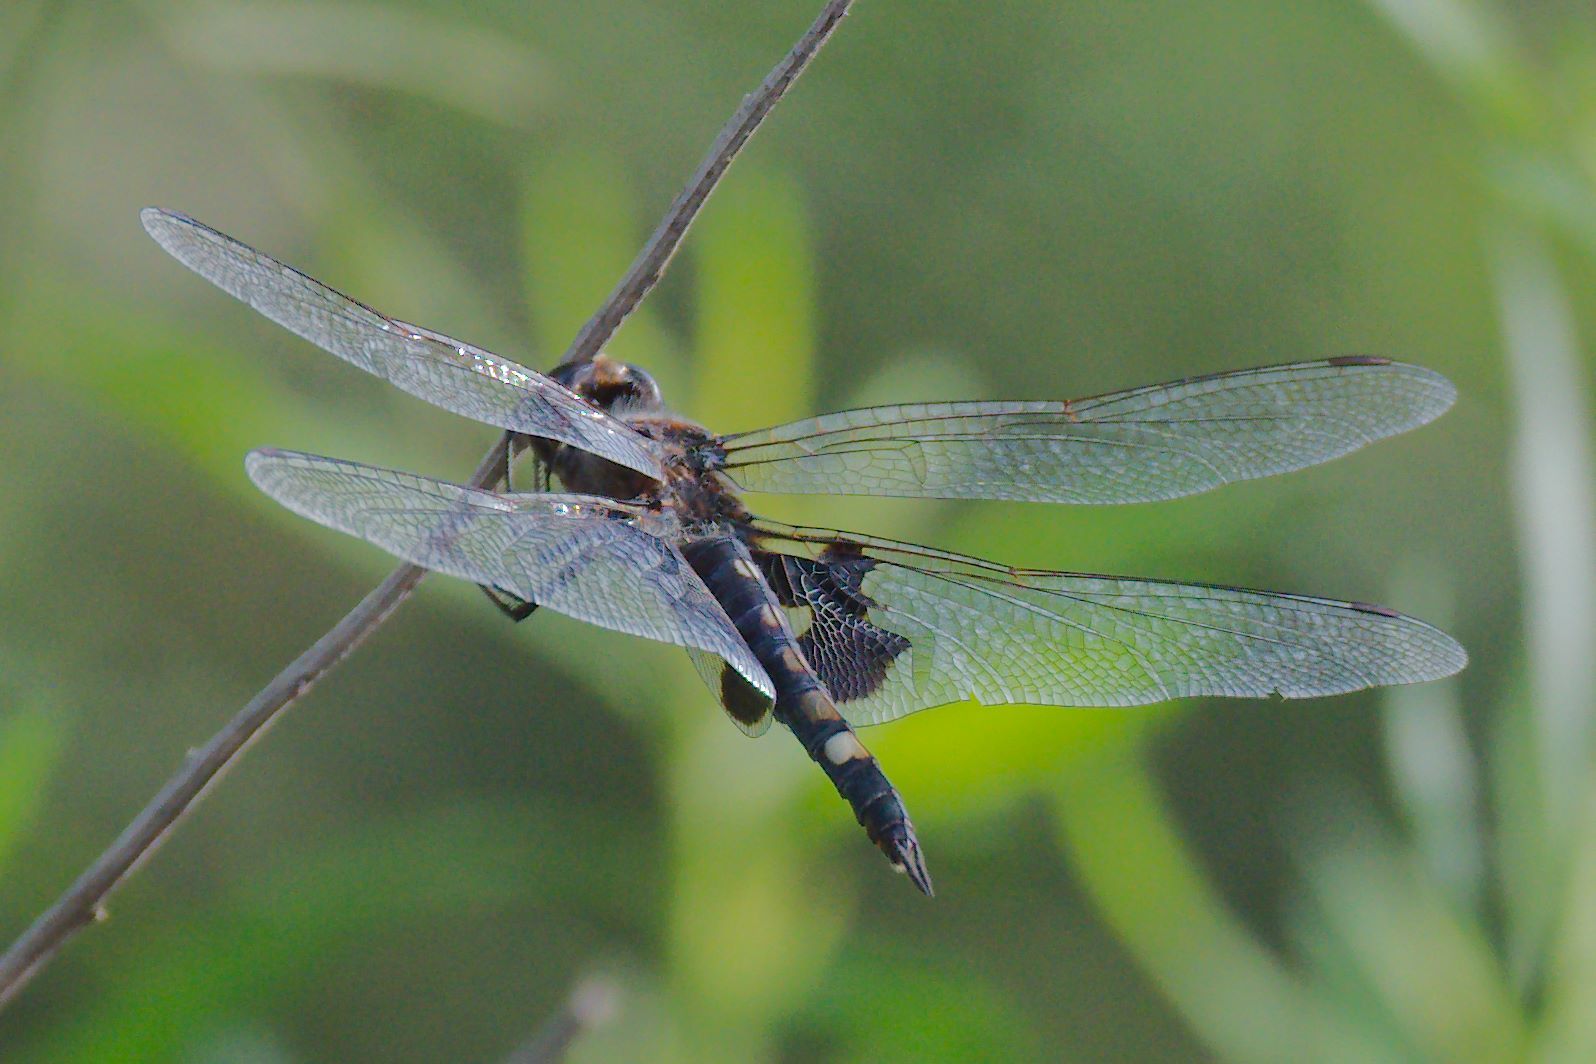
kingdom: Animalia
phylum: Arthropoda
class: Insecta
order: Odonata
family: Libellulidae
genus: Tramea
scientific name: Tramea lacerata
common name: Black saddlebags
